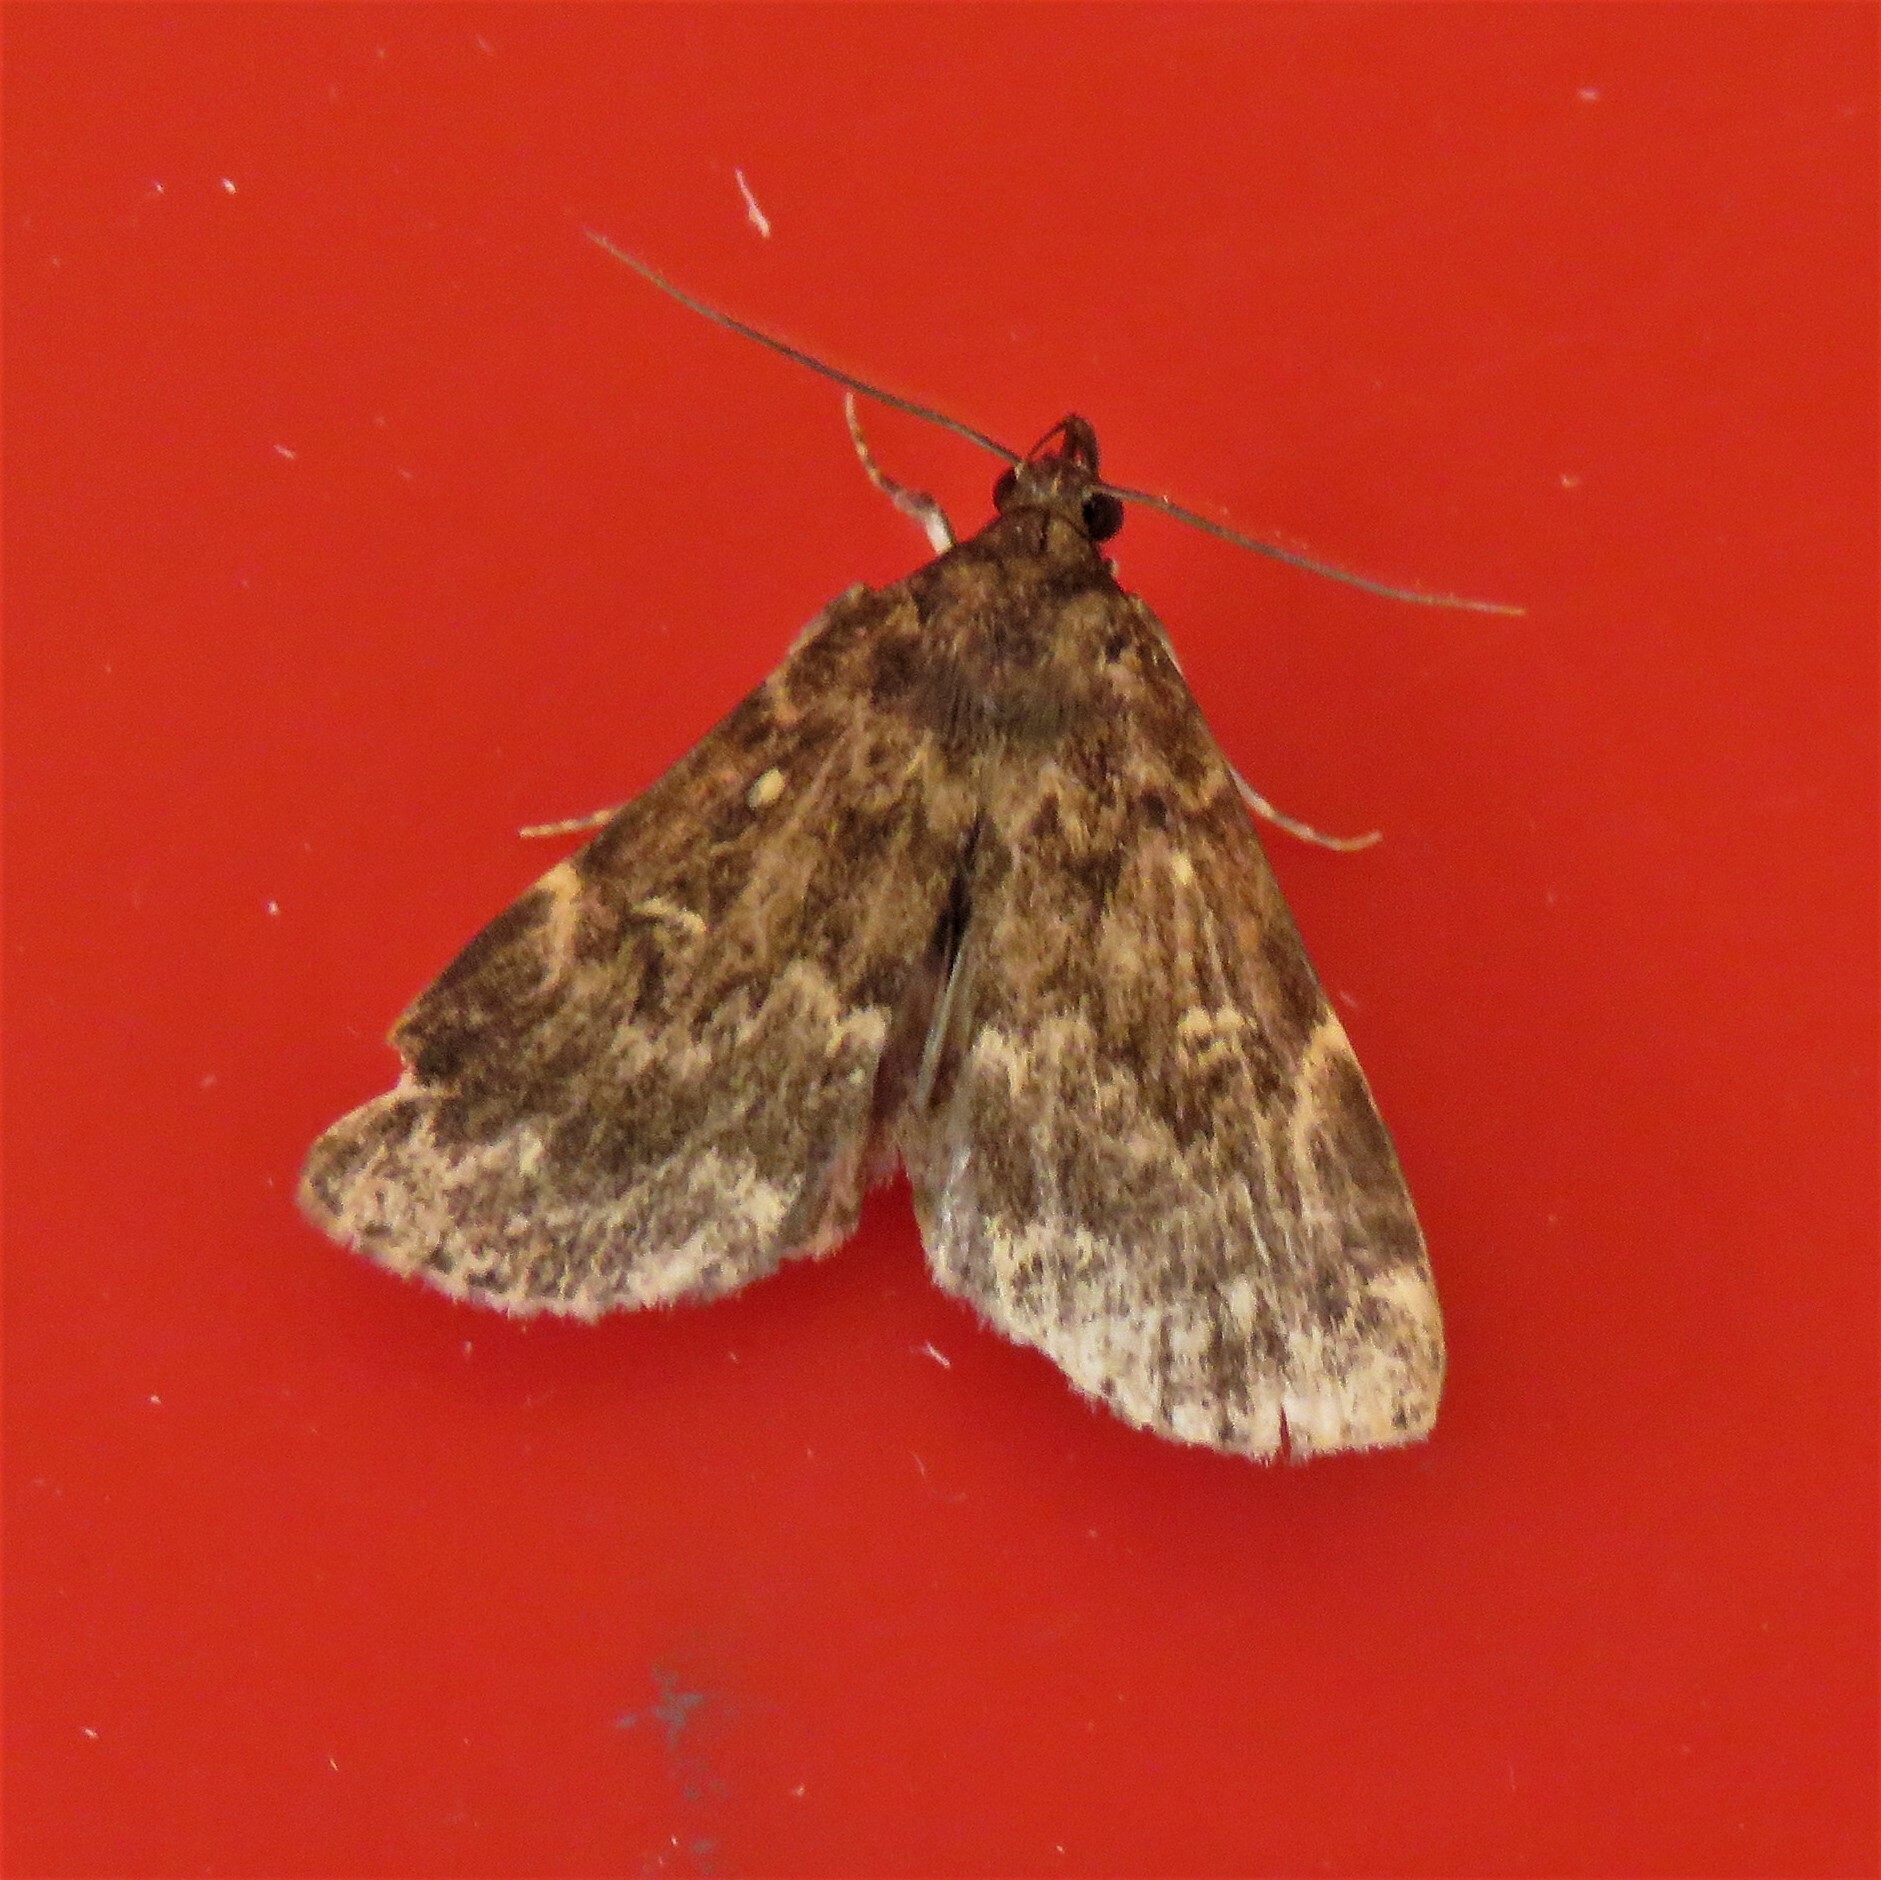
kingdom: Animalia
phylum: Arthropoda
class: Insecta
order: Lepidoptera
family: Erebidae
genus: Idia
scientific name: Idia lubricalis
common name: Twin-striped tabby
